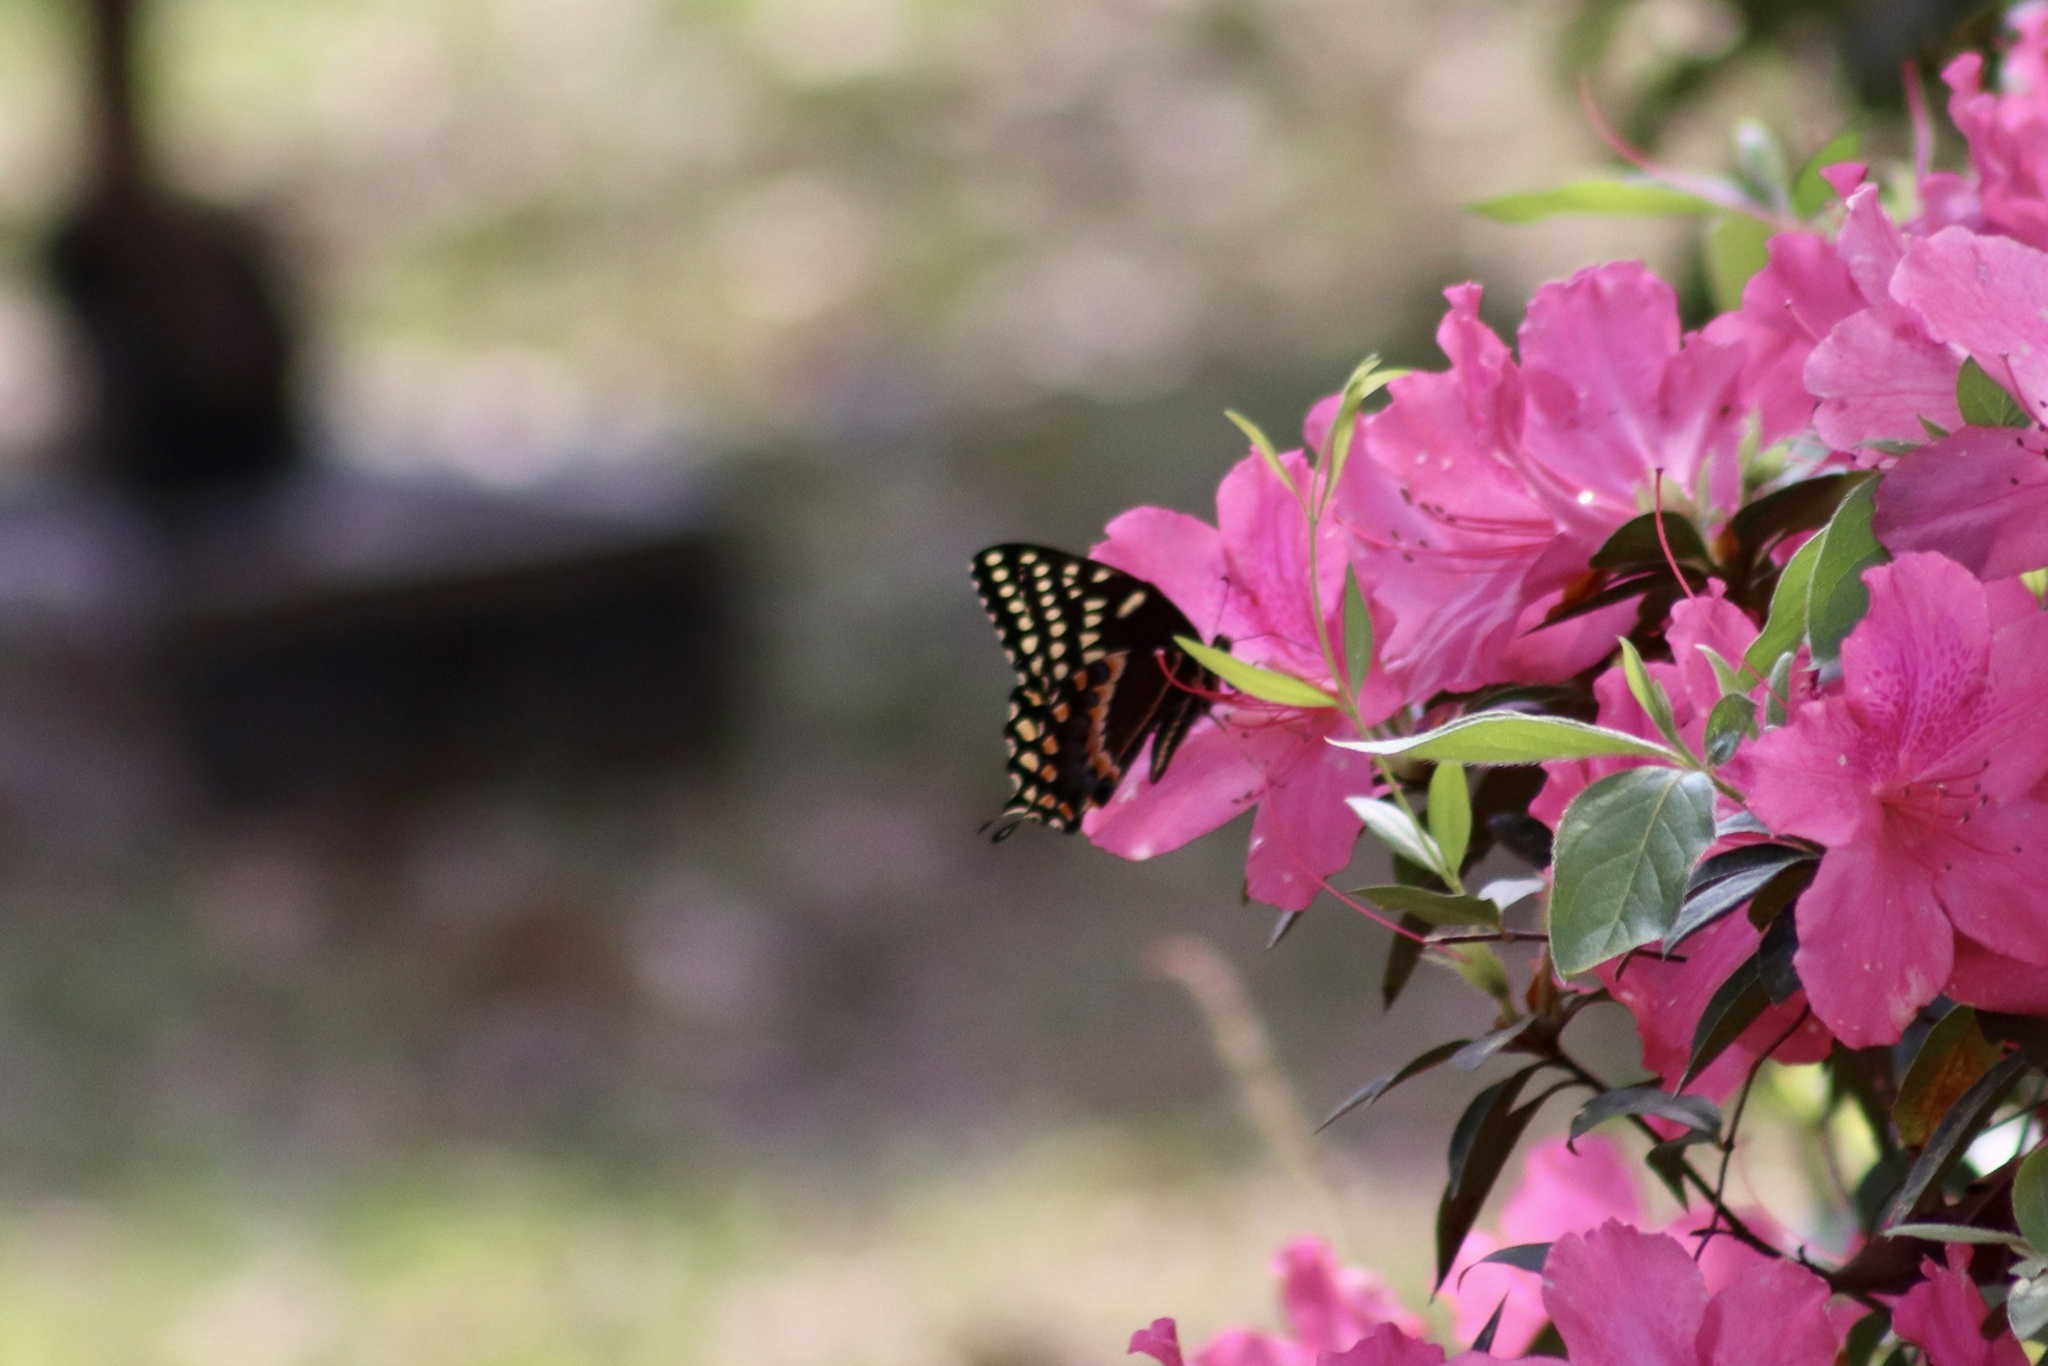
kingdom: Animalia
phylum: Arthropoda
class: Insecta
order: Lepidoptera
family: Papilionidae
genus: Papilio
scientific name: Papilio polyxenes
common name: Black swallowtail
